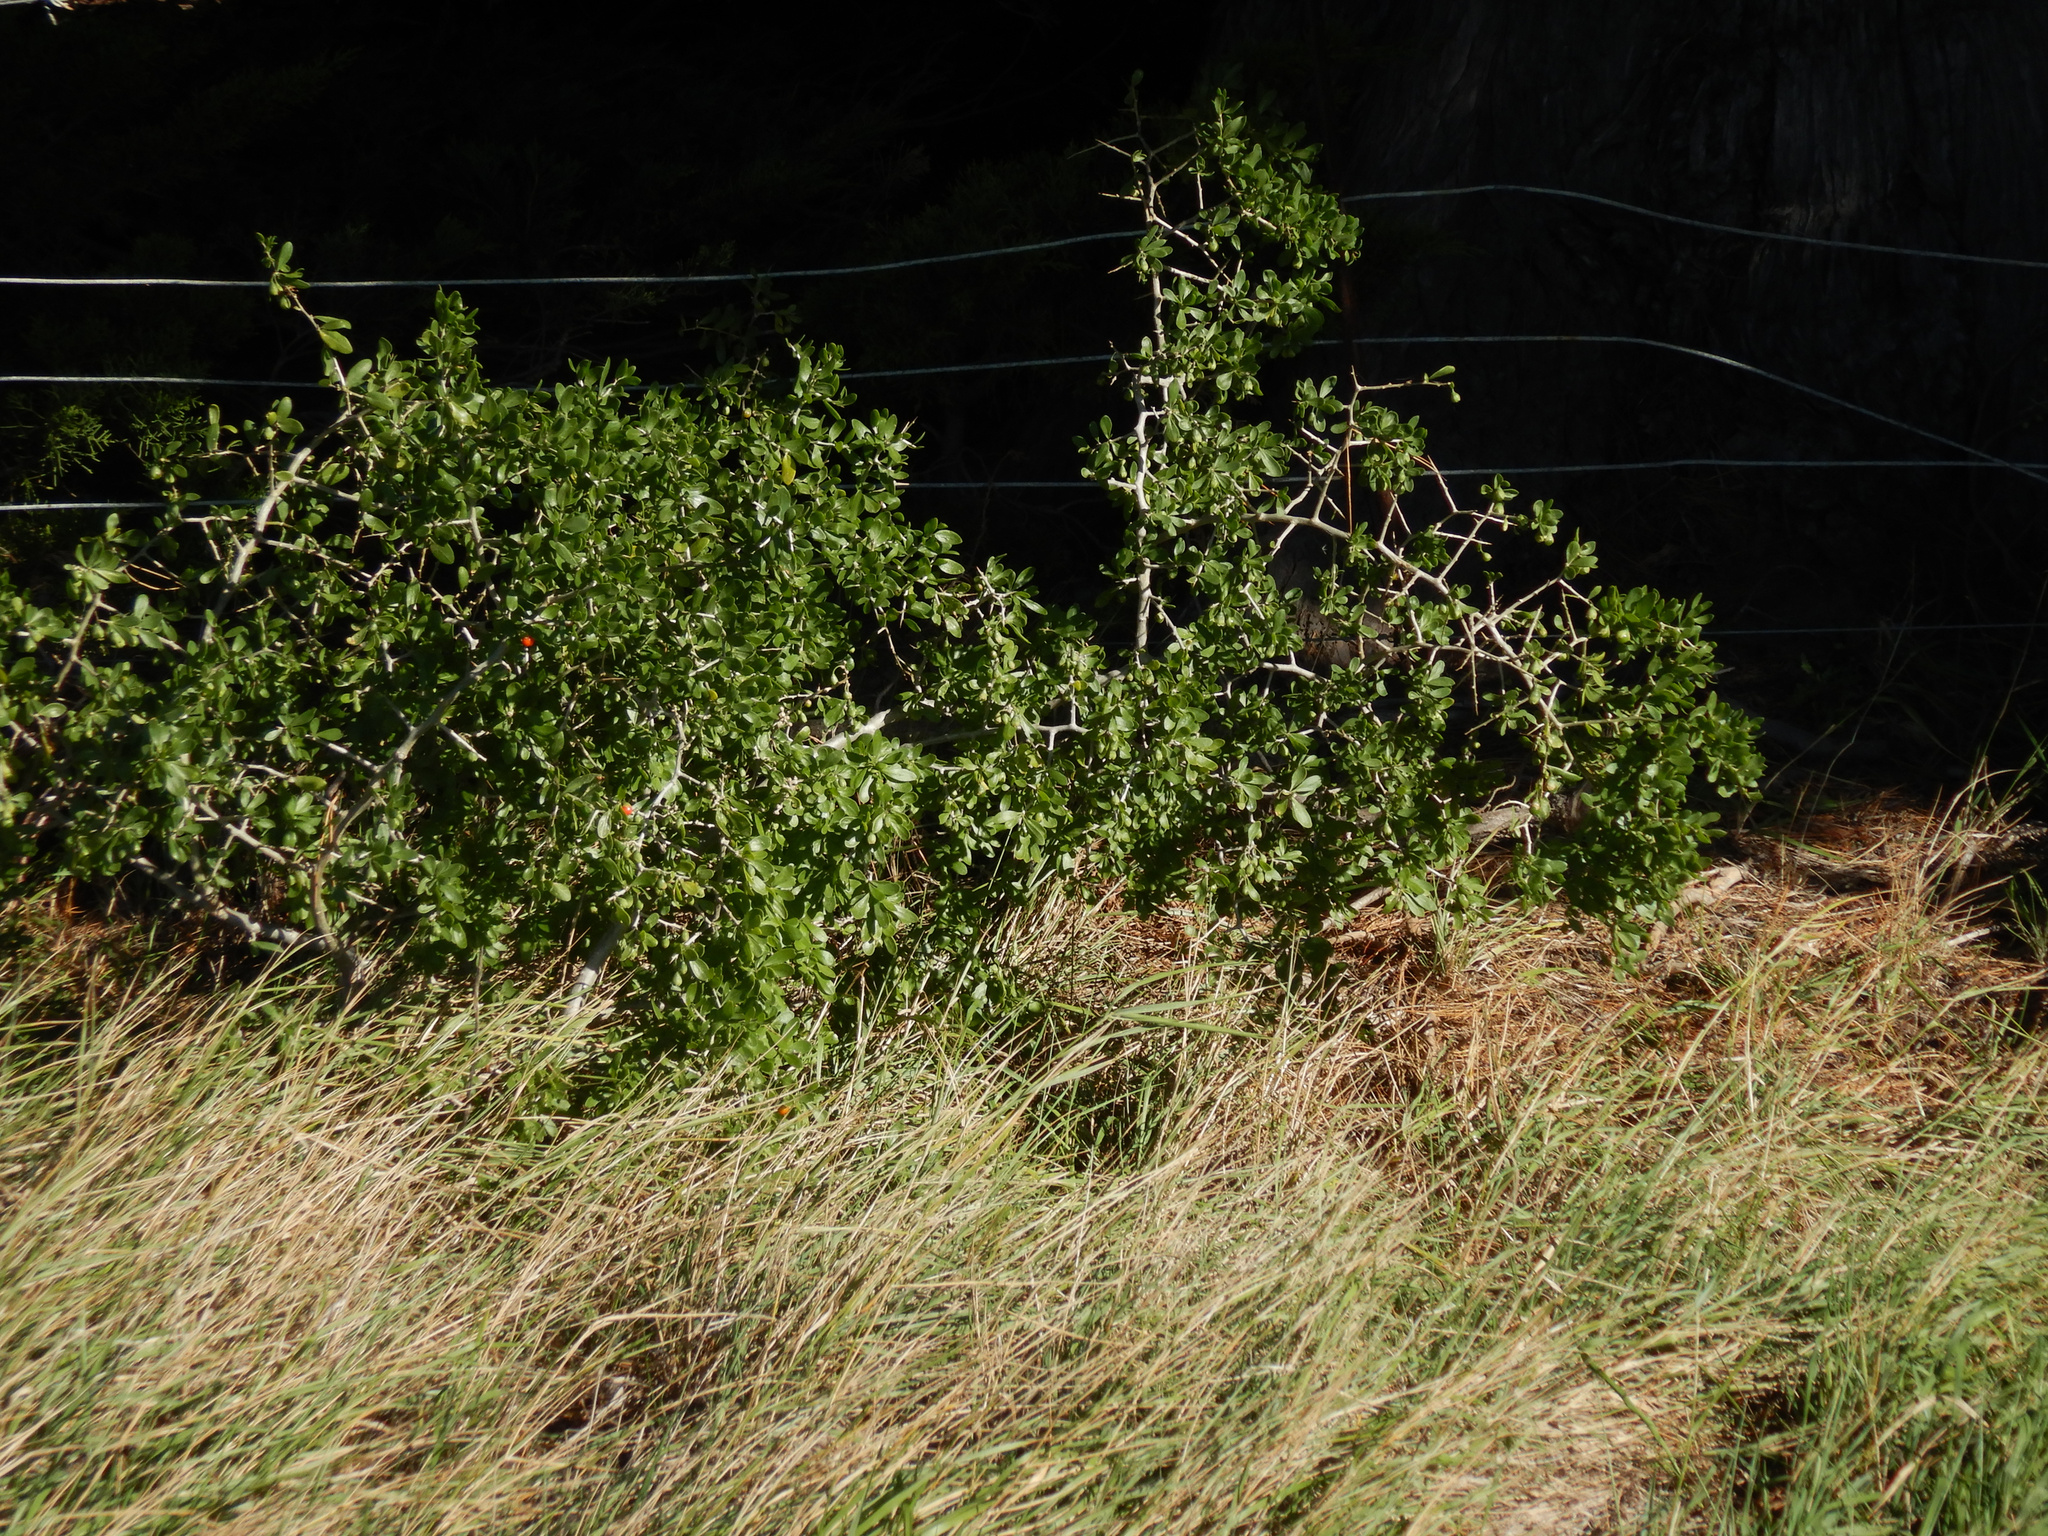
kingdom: Plantae
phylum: Tracheophyta
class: Magnoliopsida
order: Solanales
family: Solanaceae
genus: Lycium
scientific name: Lycium ferocissimum
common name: African boxthorn
